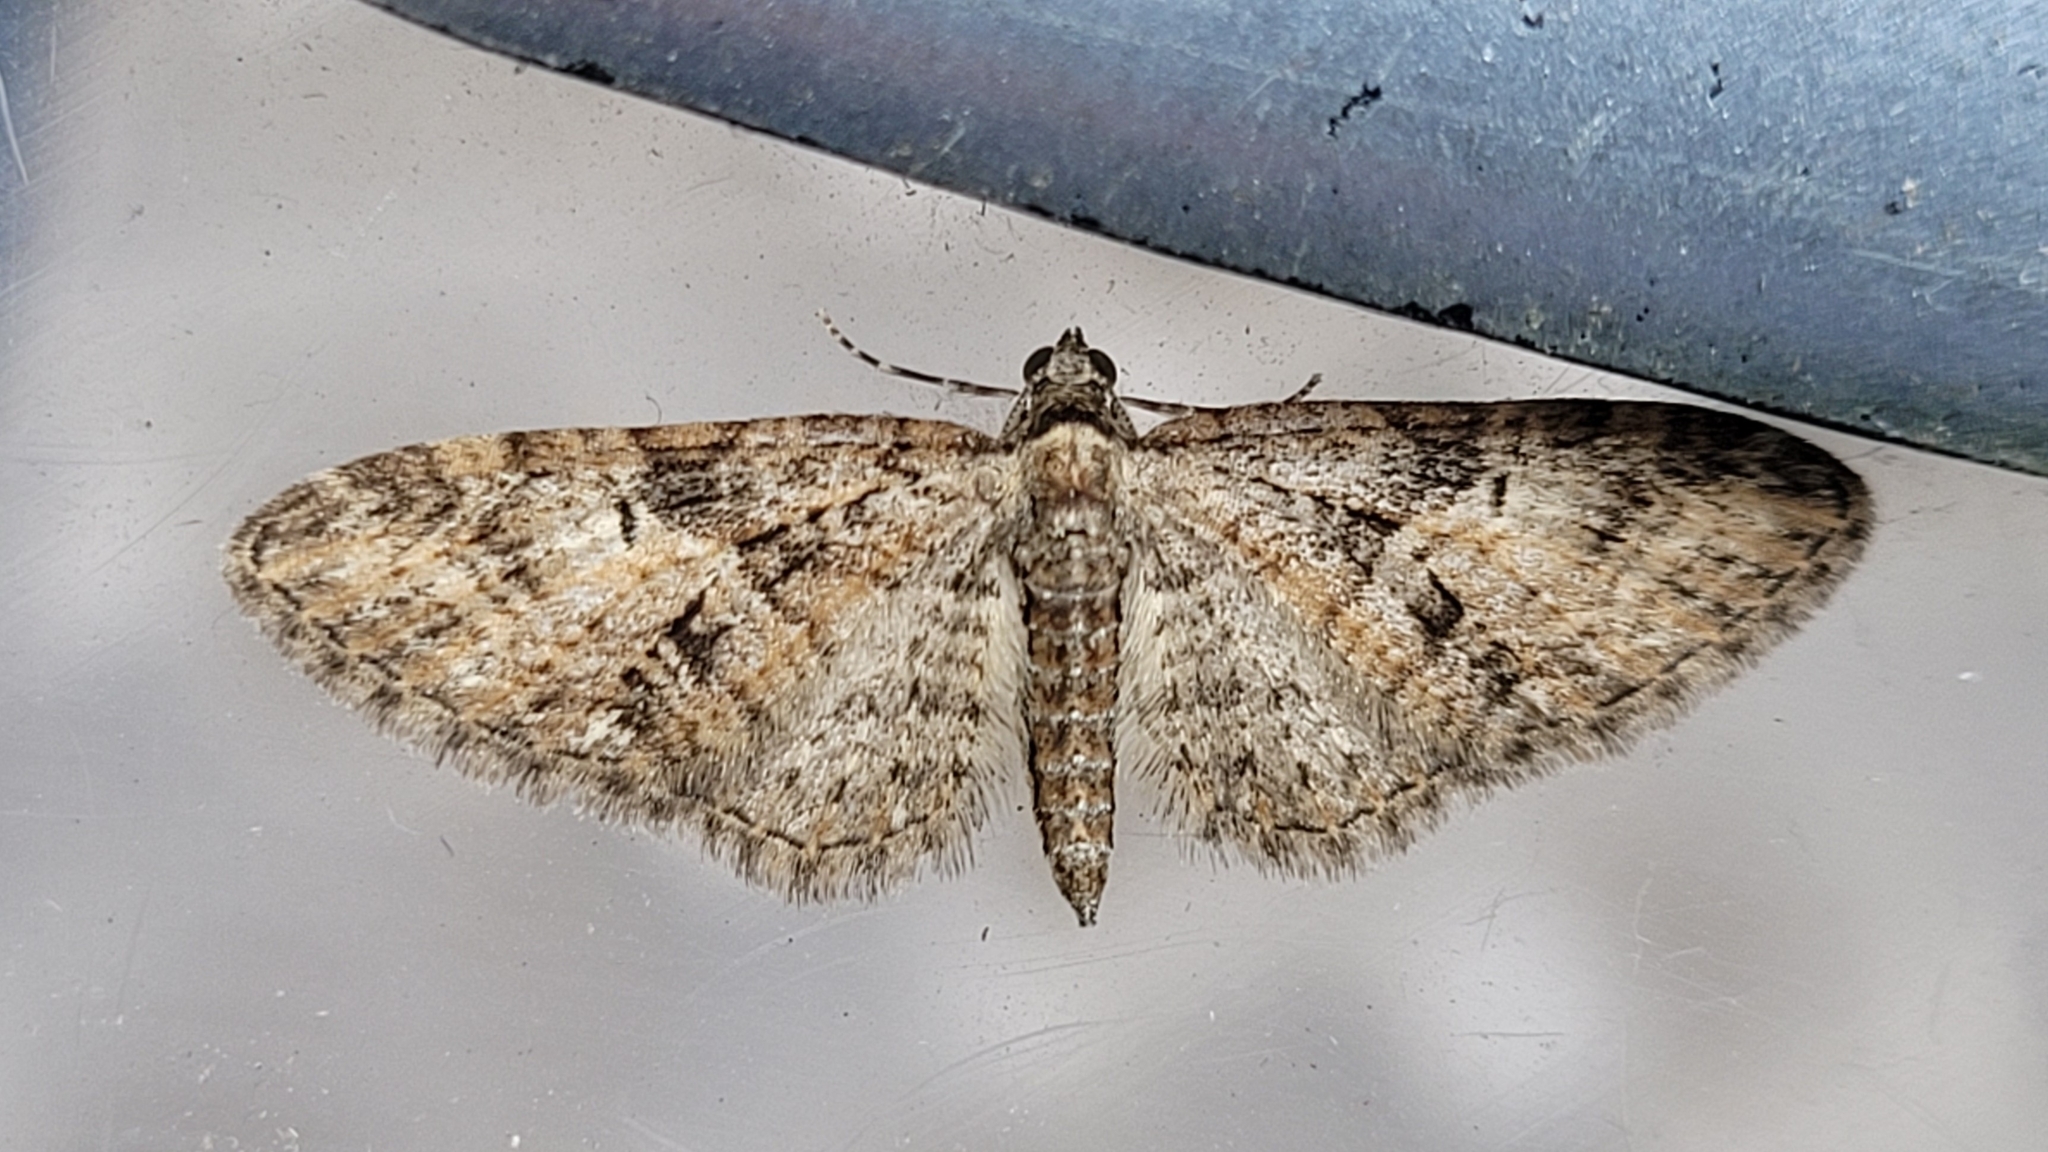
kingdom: Animalia
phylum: Arthropoda
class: Insecta
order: Lepidoptera
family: Geometridae
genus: Eupithecia
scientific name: Eupithecia abbreviata
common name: Brindled pug
